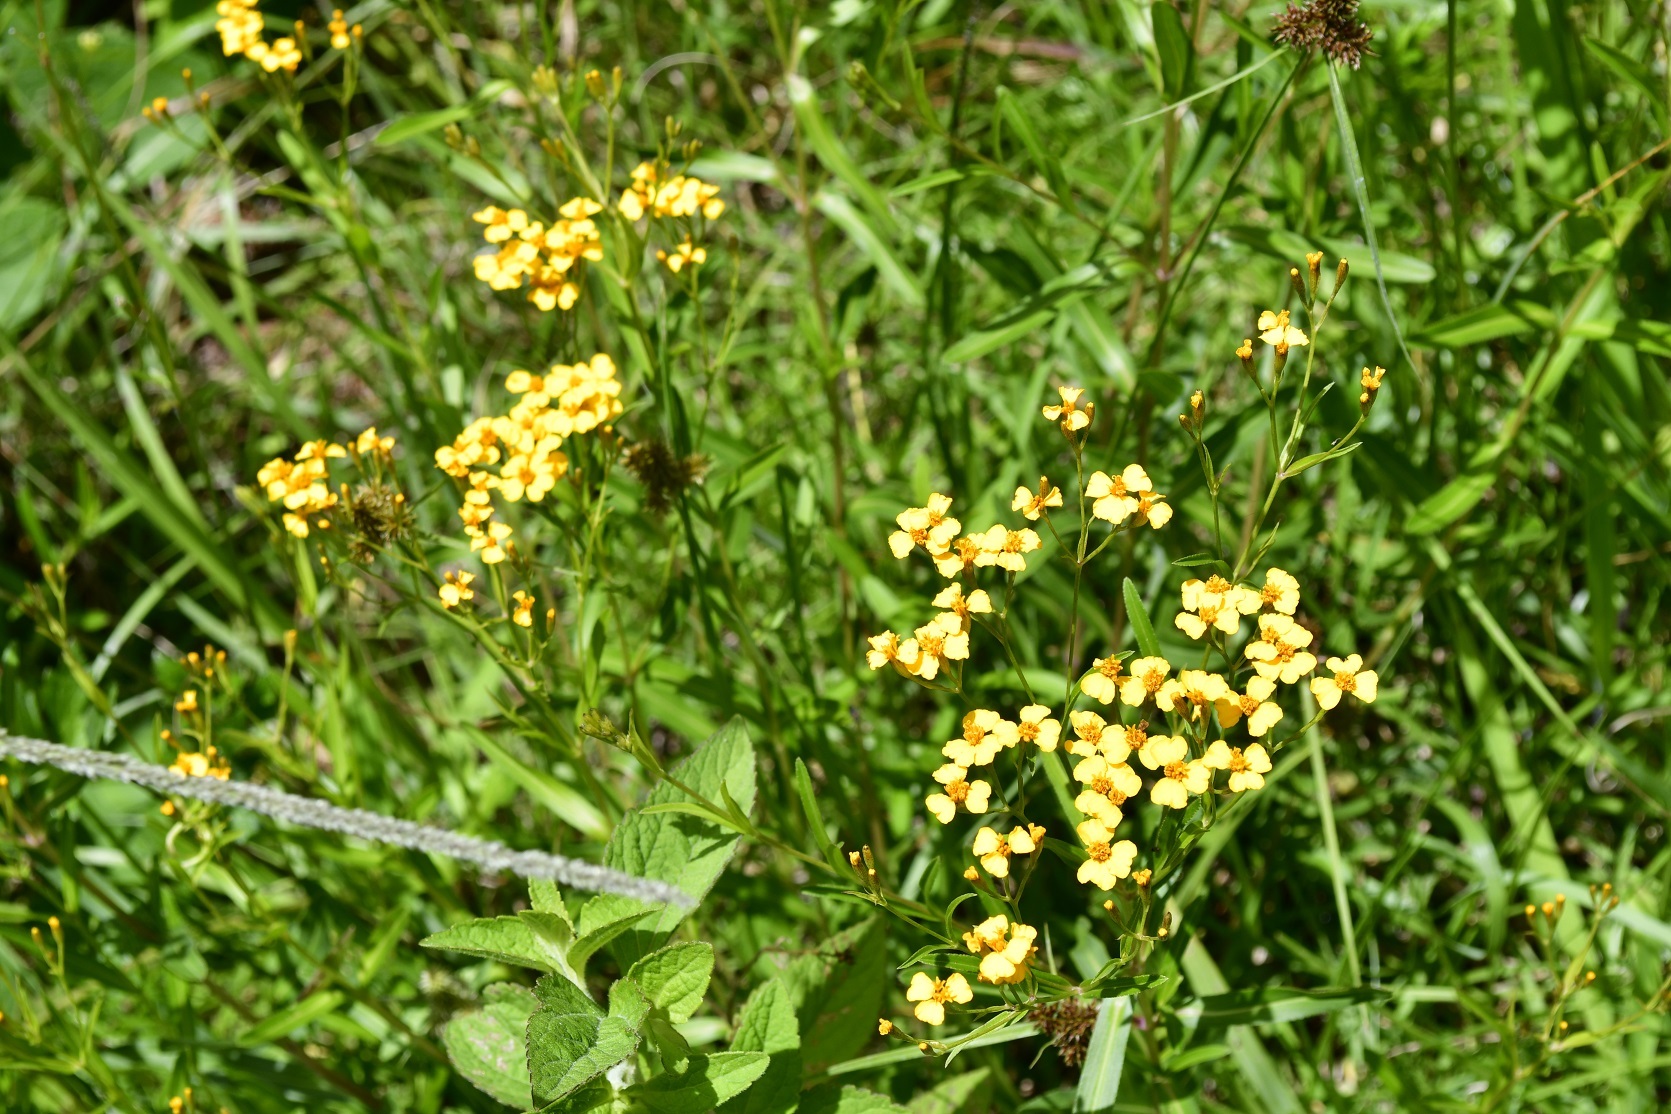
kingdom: Plantae
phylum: Tracheophyta
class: Magnoliopsida
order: Asterales
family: Asteraceae
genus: Tagetes
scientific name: Tagetes lucida
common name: Sweetscented marigold
